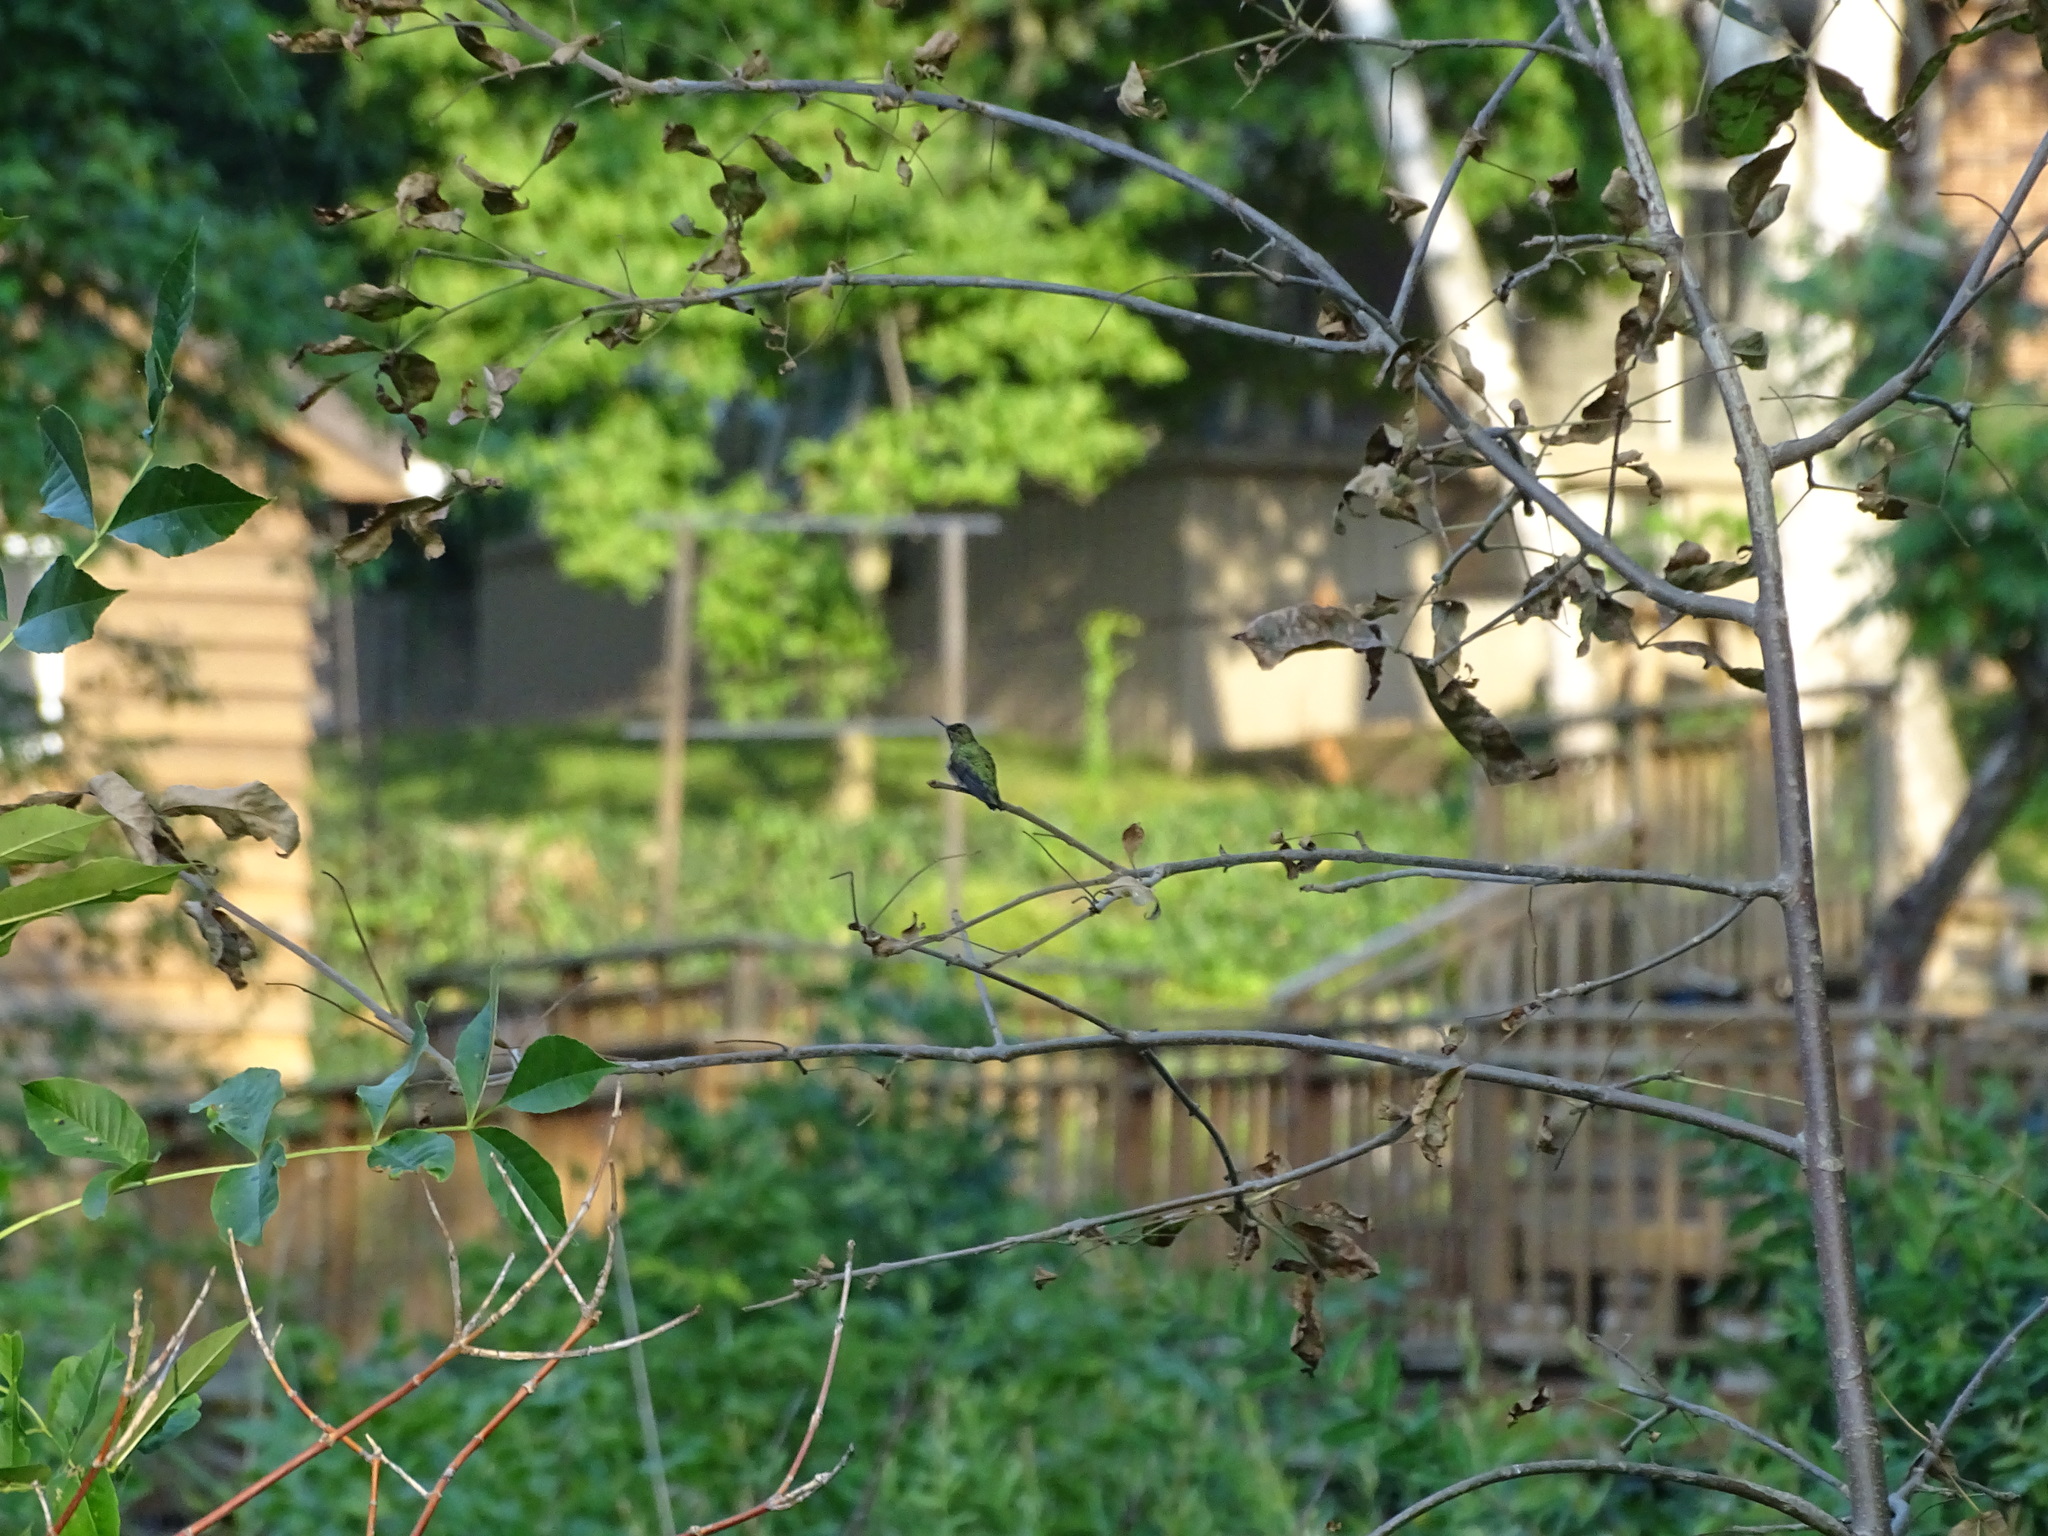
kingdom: Animalia
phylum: Chordata
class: Aves
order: Apodiformes
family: Trochilidae
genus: Archilochus
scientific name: Archilochus colubris
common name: Ruby-throated hummingbird
